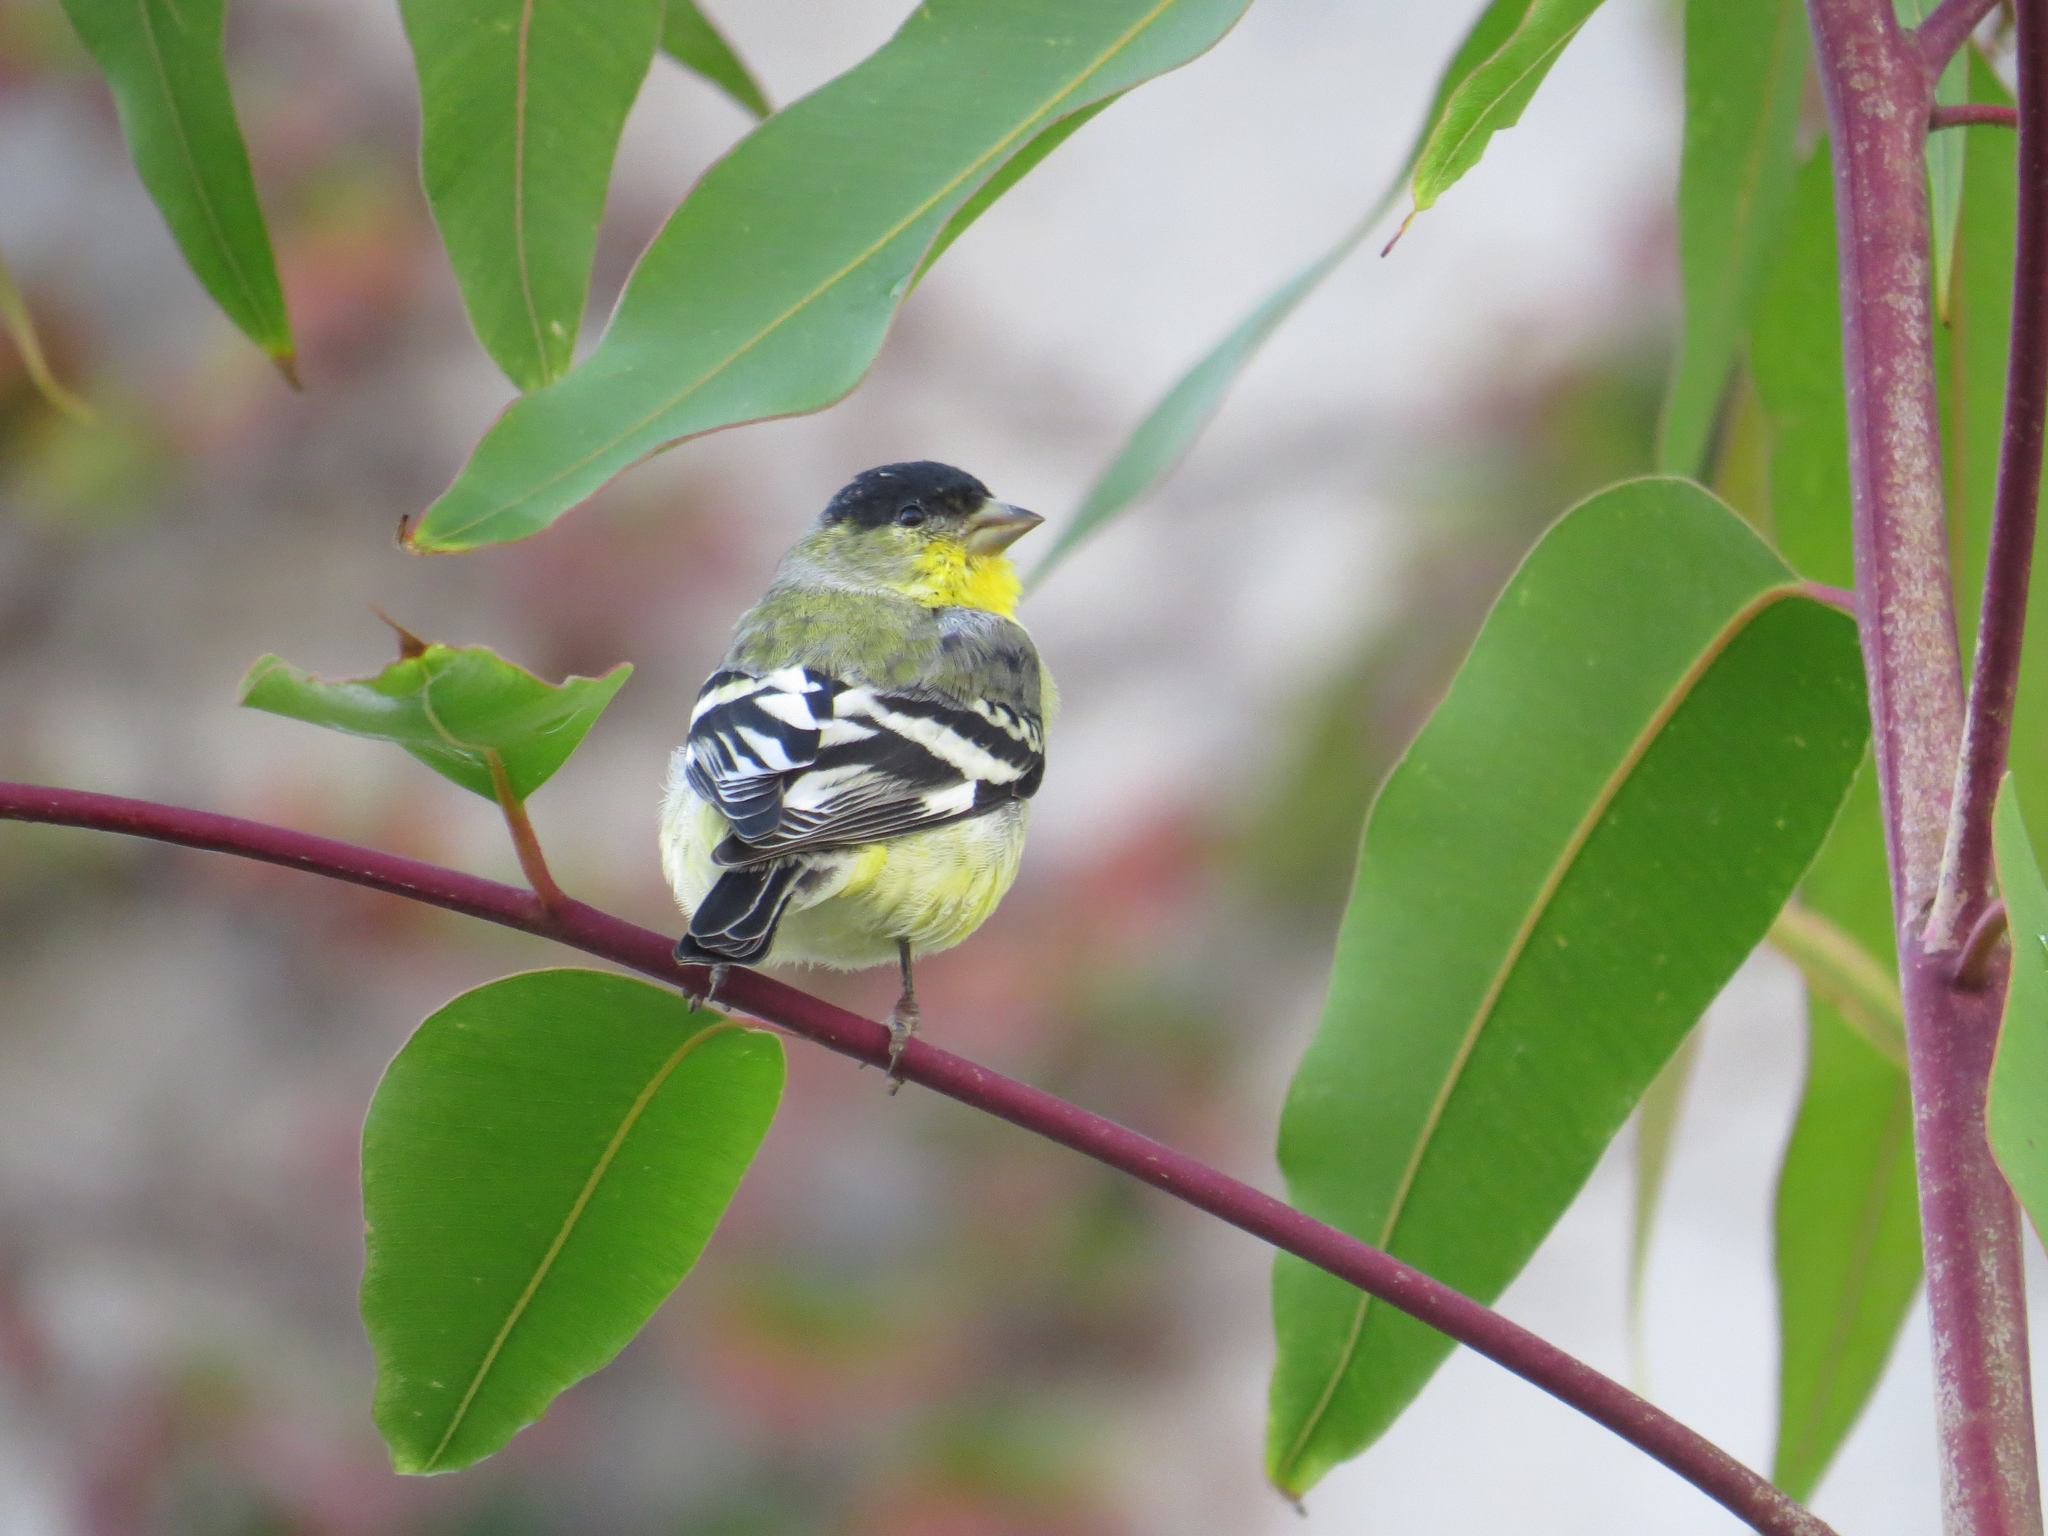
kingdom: Animalia
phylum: Chordata
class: Aves
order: Passeriformes
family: Fringillidae
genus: Spinus
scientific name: Spinus psaltria
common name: Lesser goldfinch
